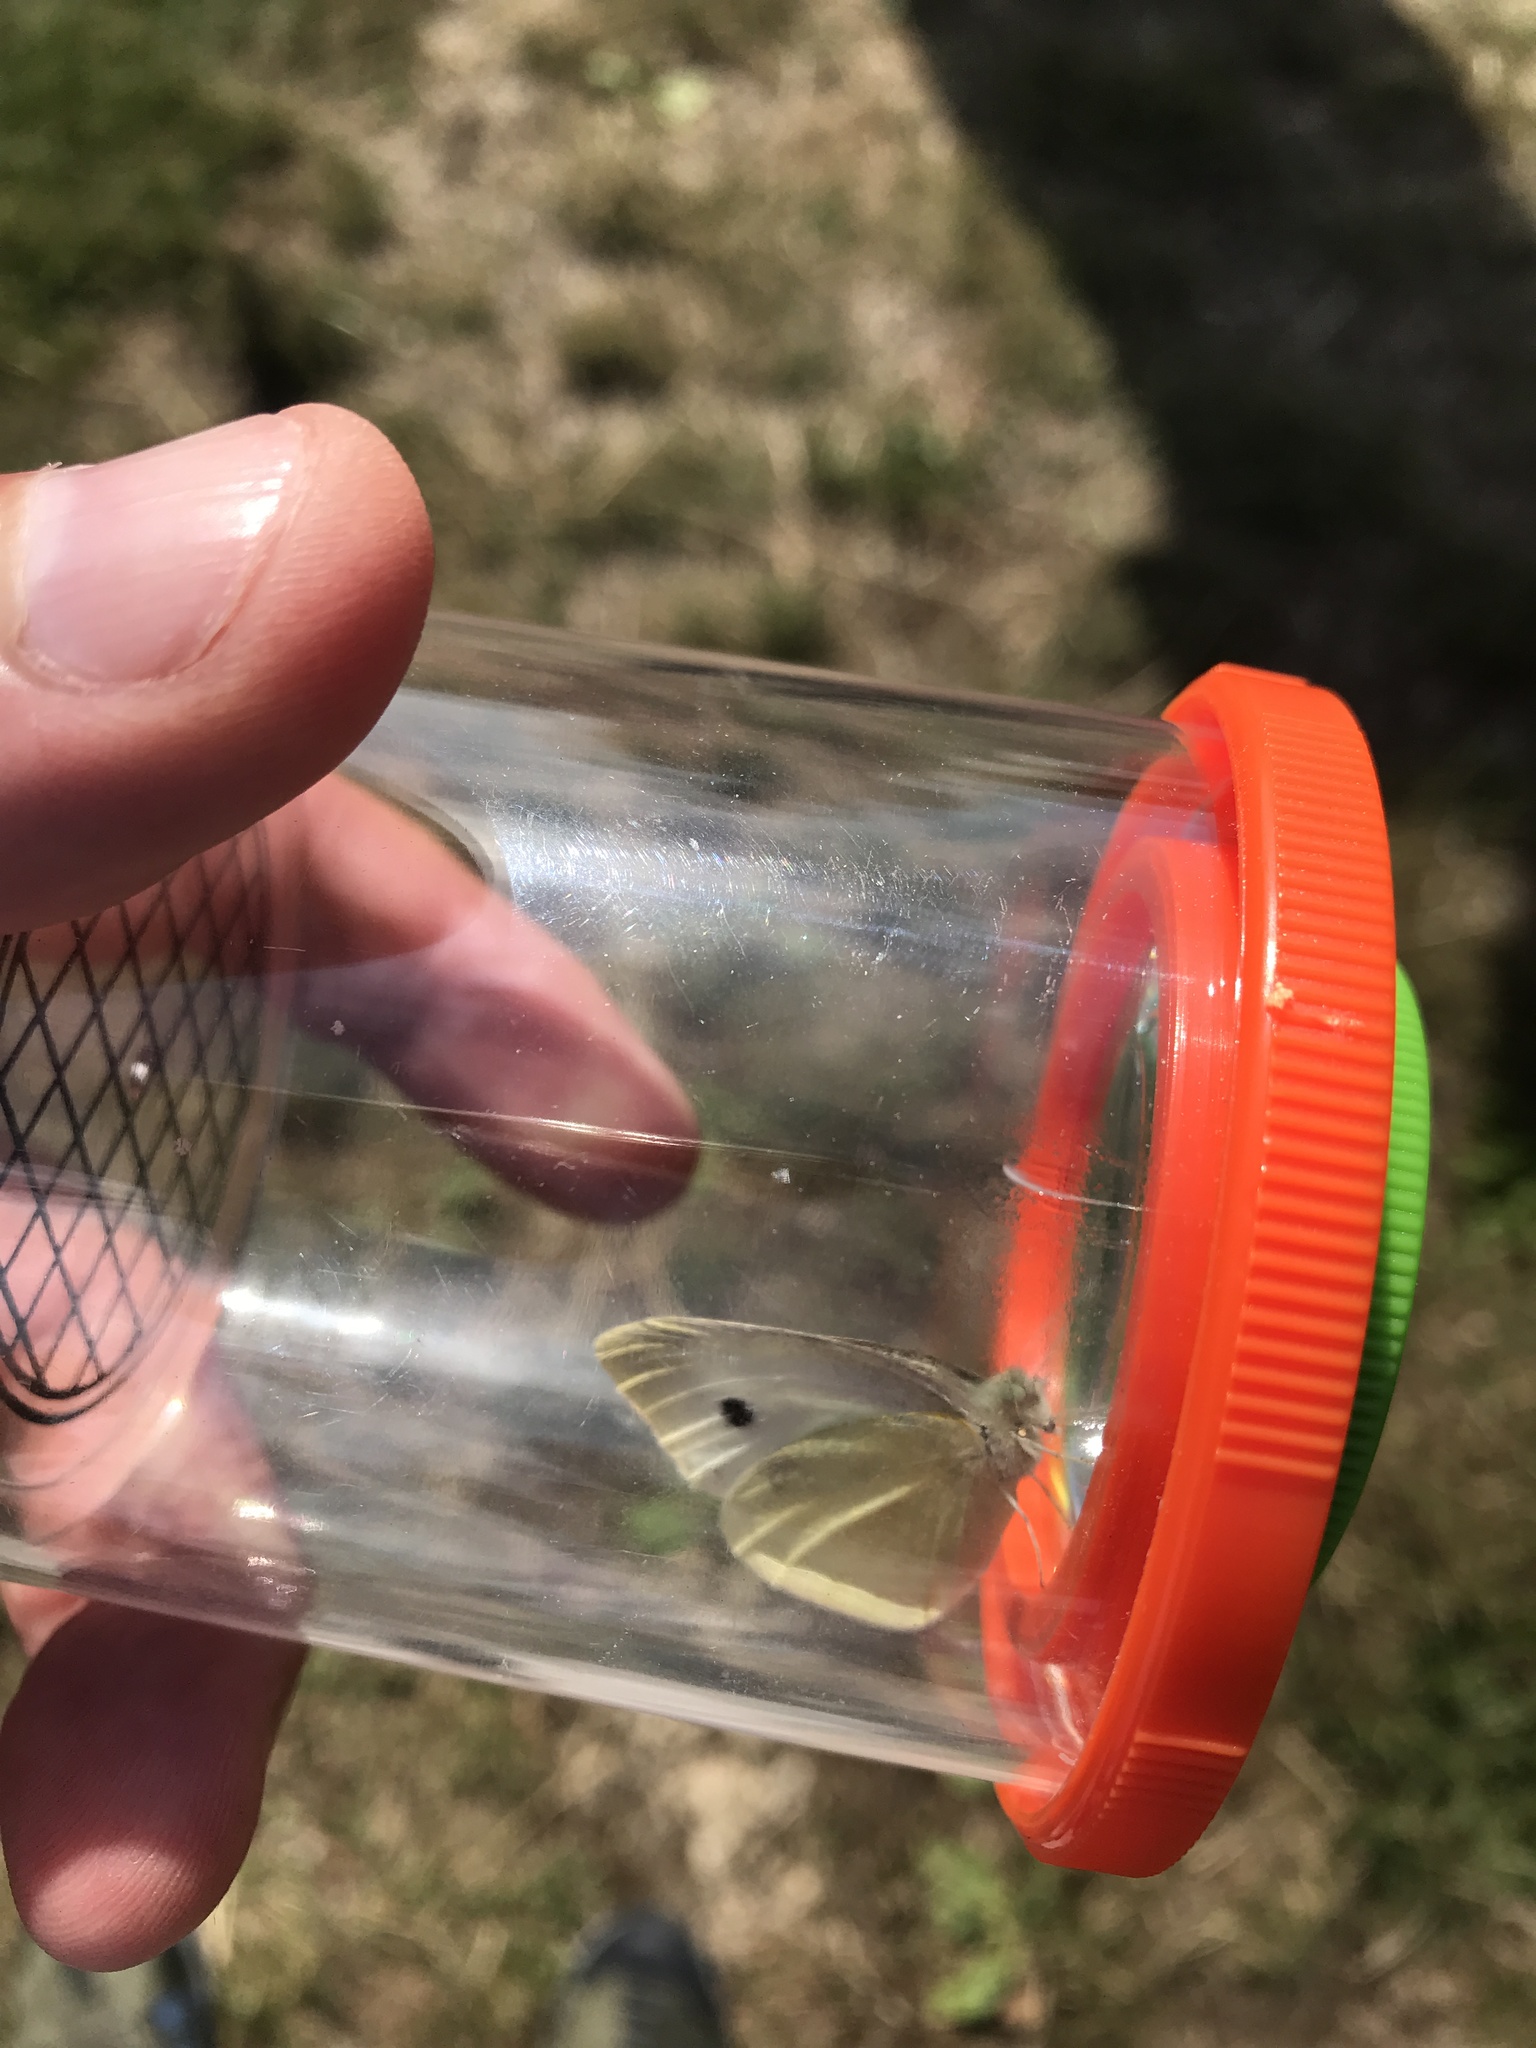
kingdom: Animalia
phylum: Arthropoda
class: Insecta
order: Lepidoptera
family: Pieridae
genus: Pieris
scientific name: Pieris rapae
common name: Small white
